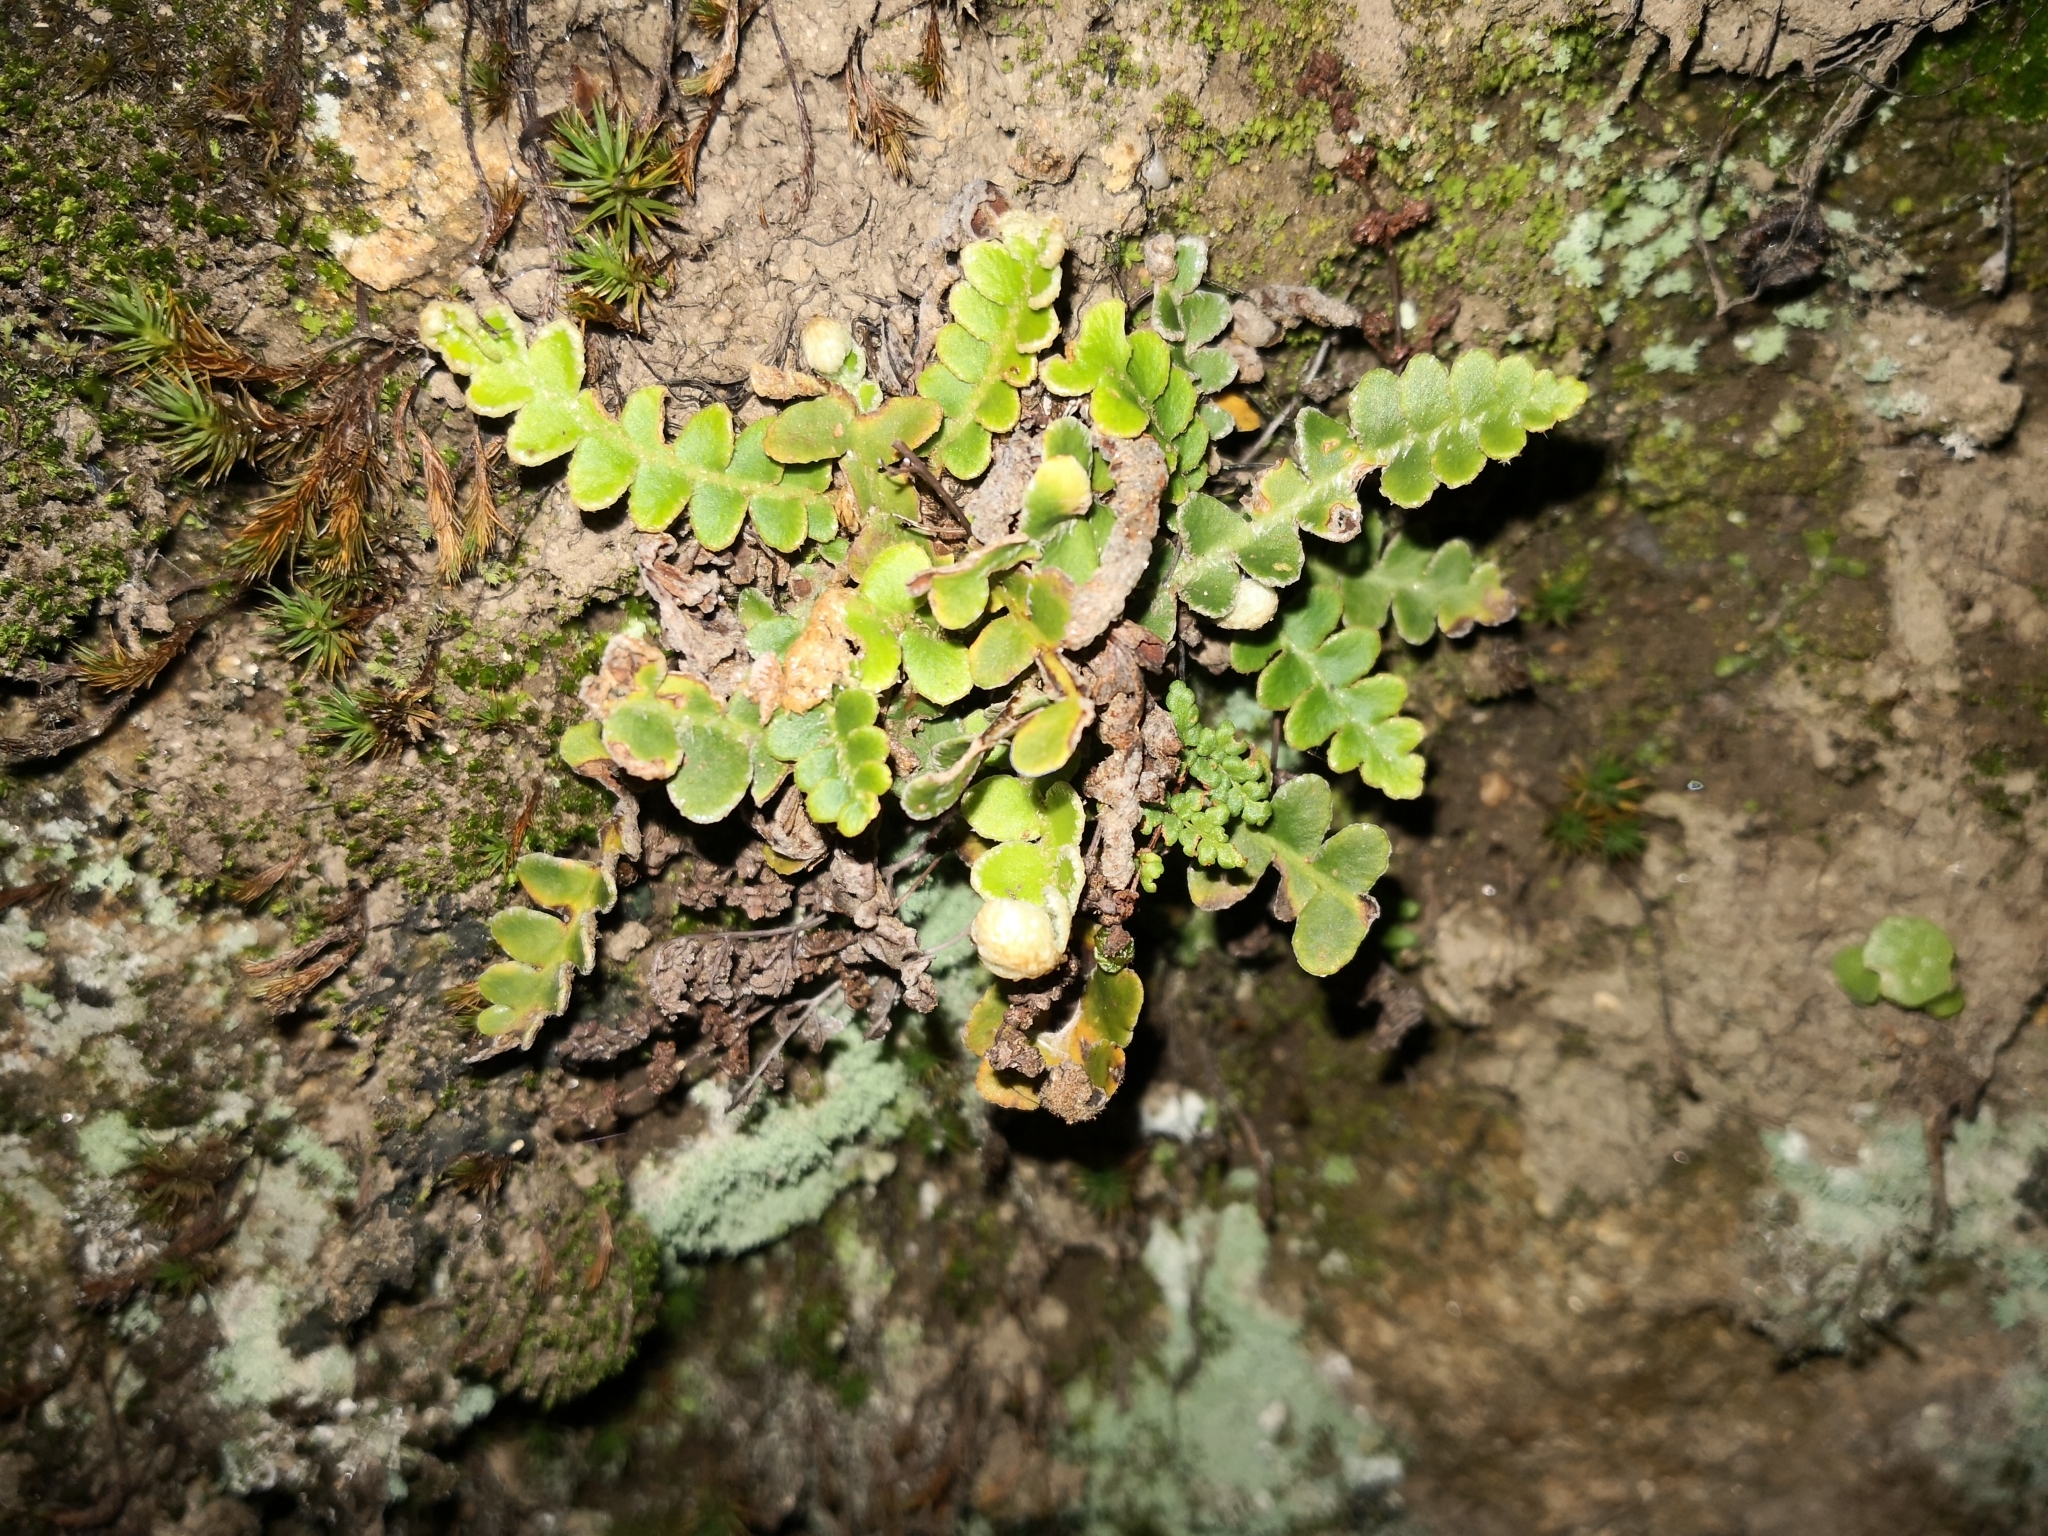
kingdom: Plantae
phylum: Tracheophyta
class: Polypodiopsida
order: Polypodiales
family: Aspleniaceae
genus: Asplenium
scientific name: Asplenium ceterach
